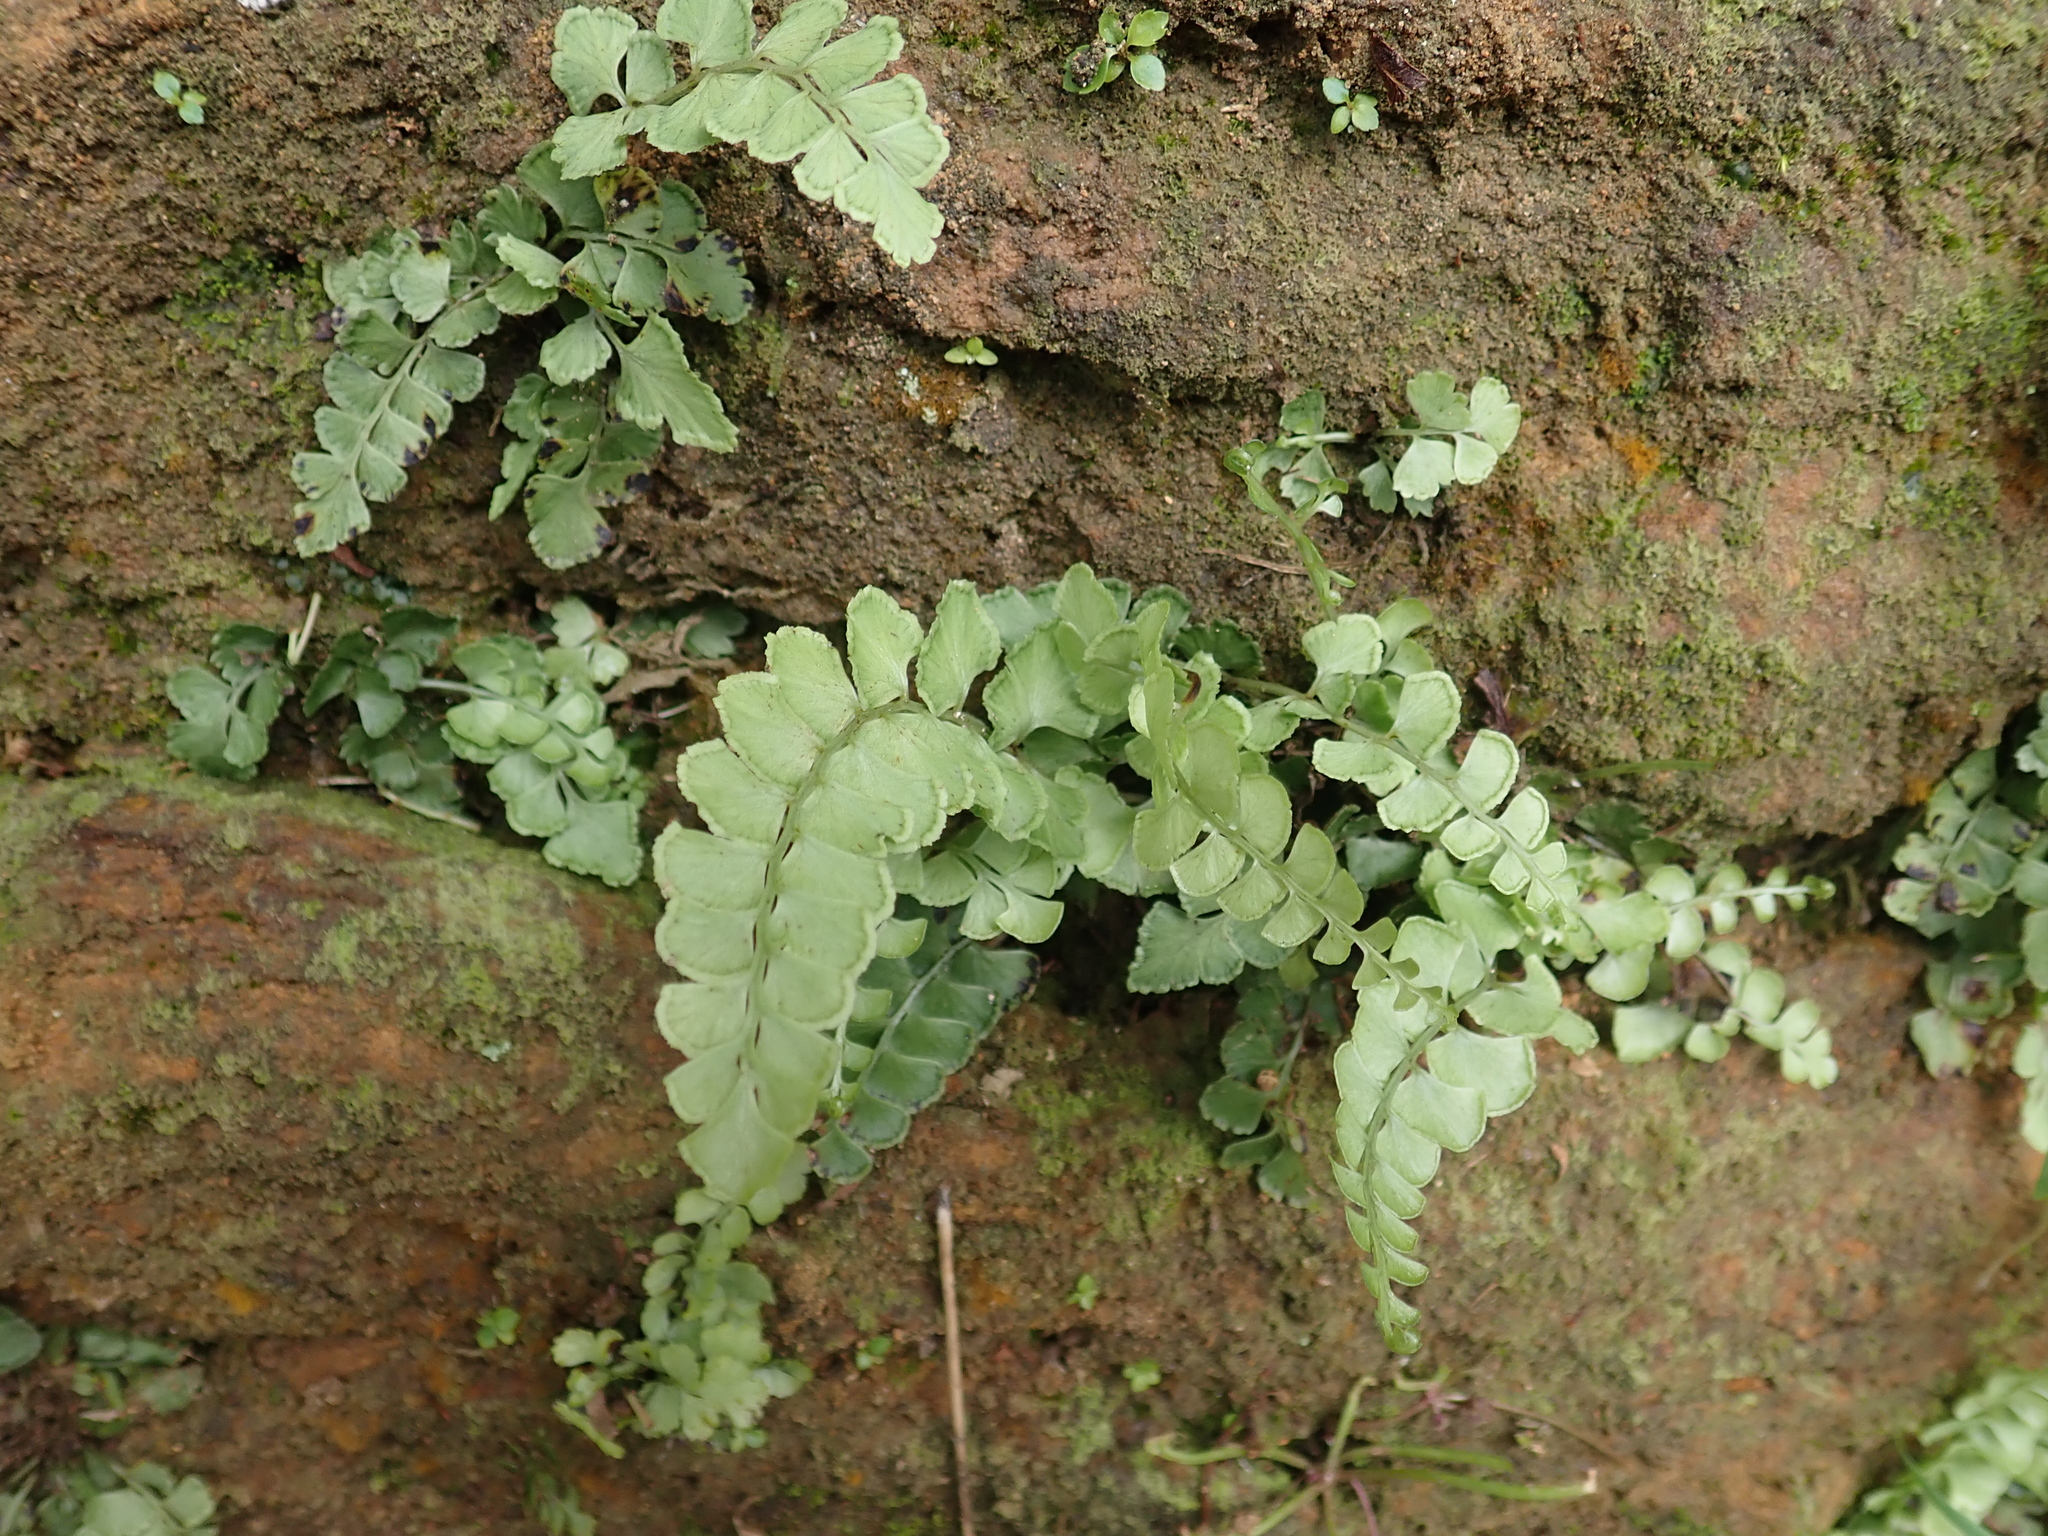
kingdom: Plantae
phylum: Tracheophyta
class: Polypodiopsida
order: Polypodiales
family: Lindsaeaceae
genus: Lindsaea
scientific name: Lindsaea orbiculata
